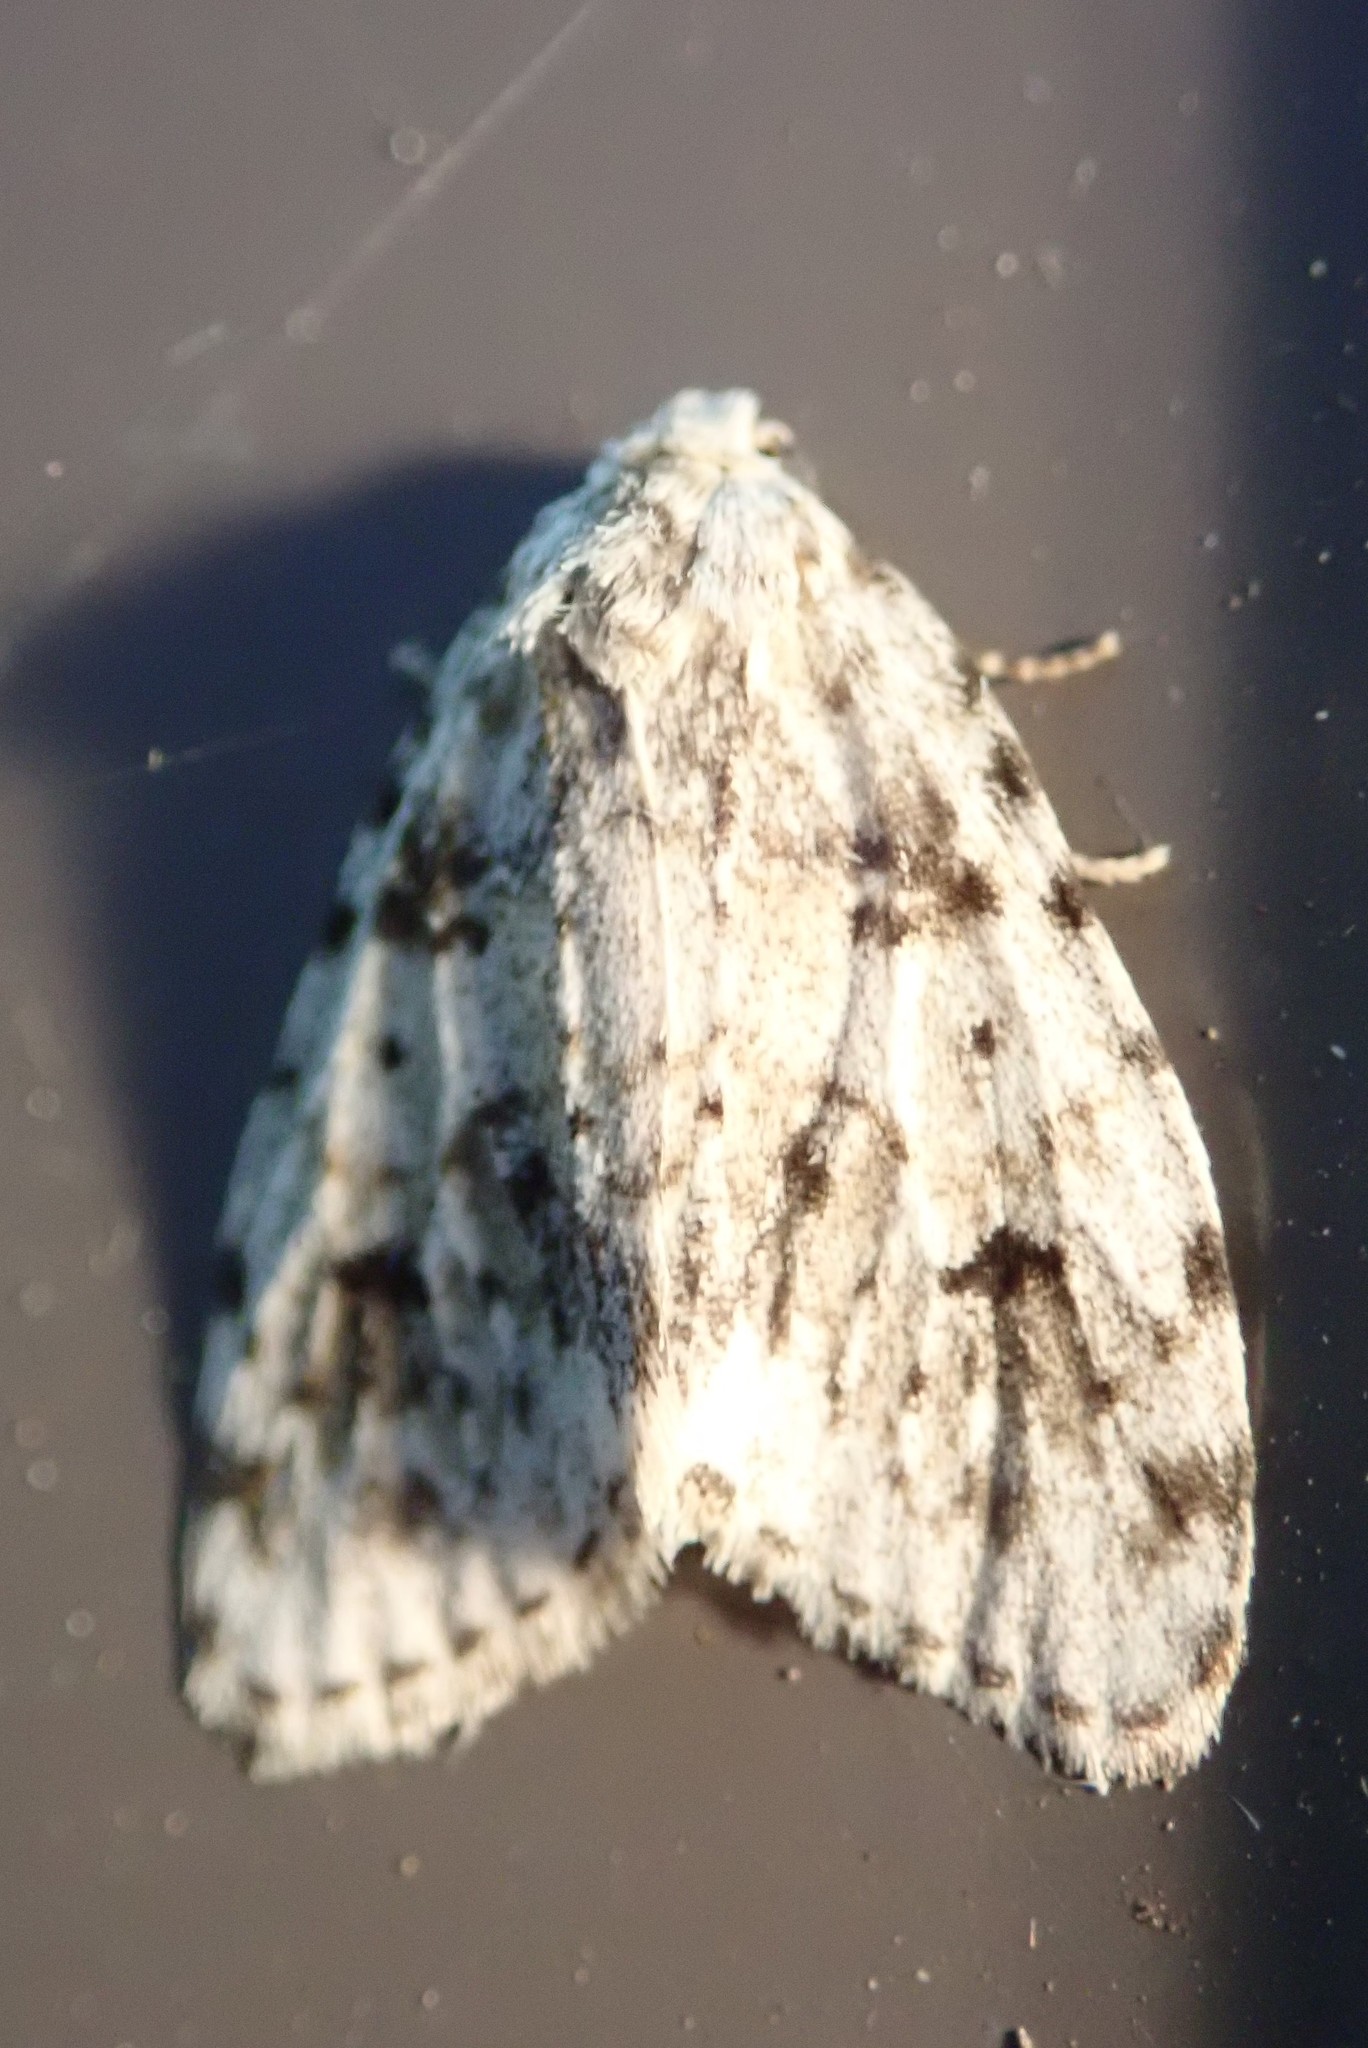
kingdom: Animalia
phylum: Arthropoda
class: Insecta
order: Lepidoptera
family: Erebidae
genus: Clemensia
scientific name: Clemensia umbrata
